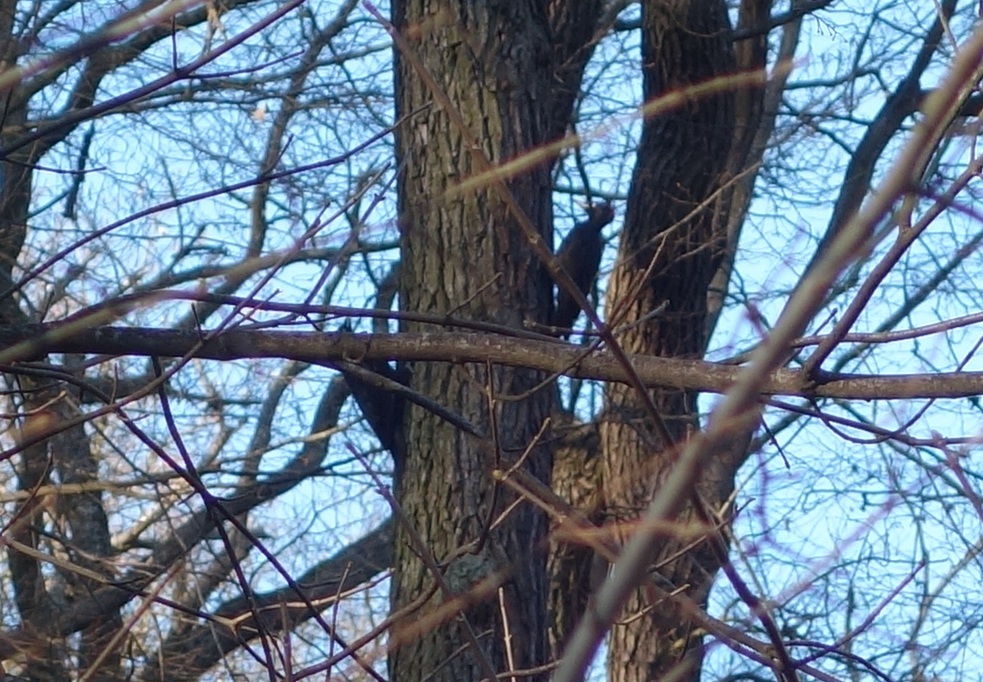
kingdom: Animalia
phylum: Chordata
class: Aves
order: Piciformes
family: Picidae
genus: Dryocopus
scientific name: Dryocopus martius
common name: Black woodpecker
